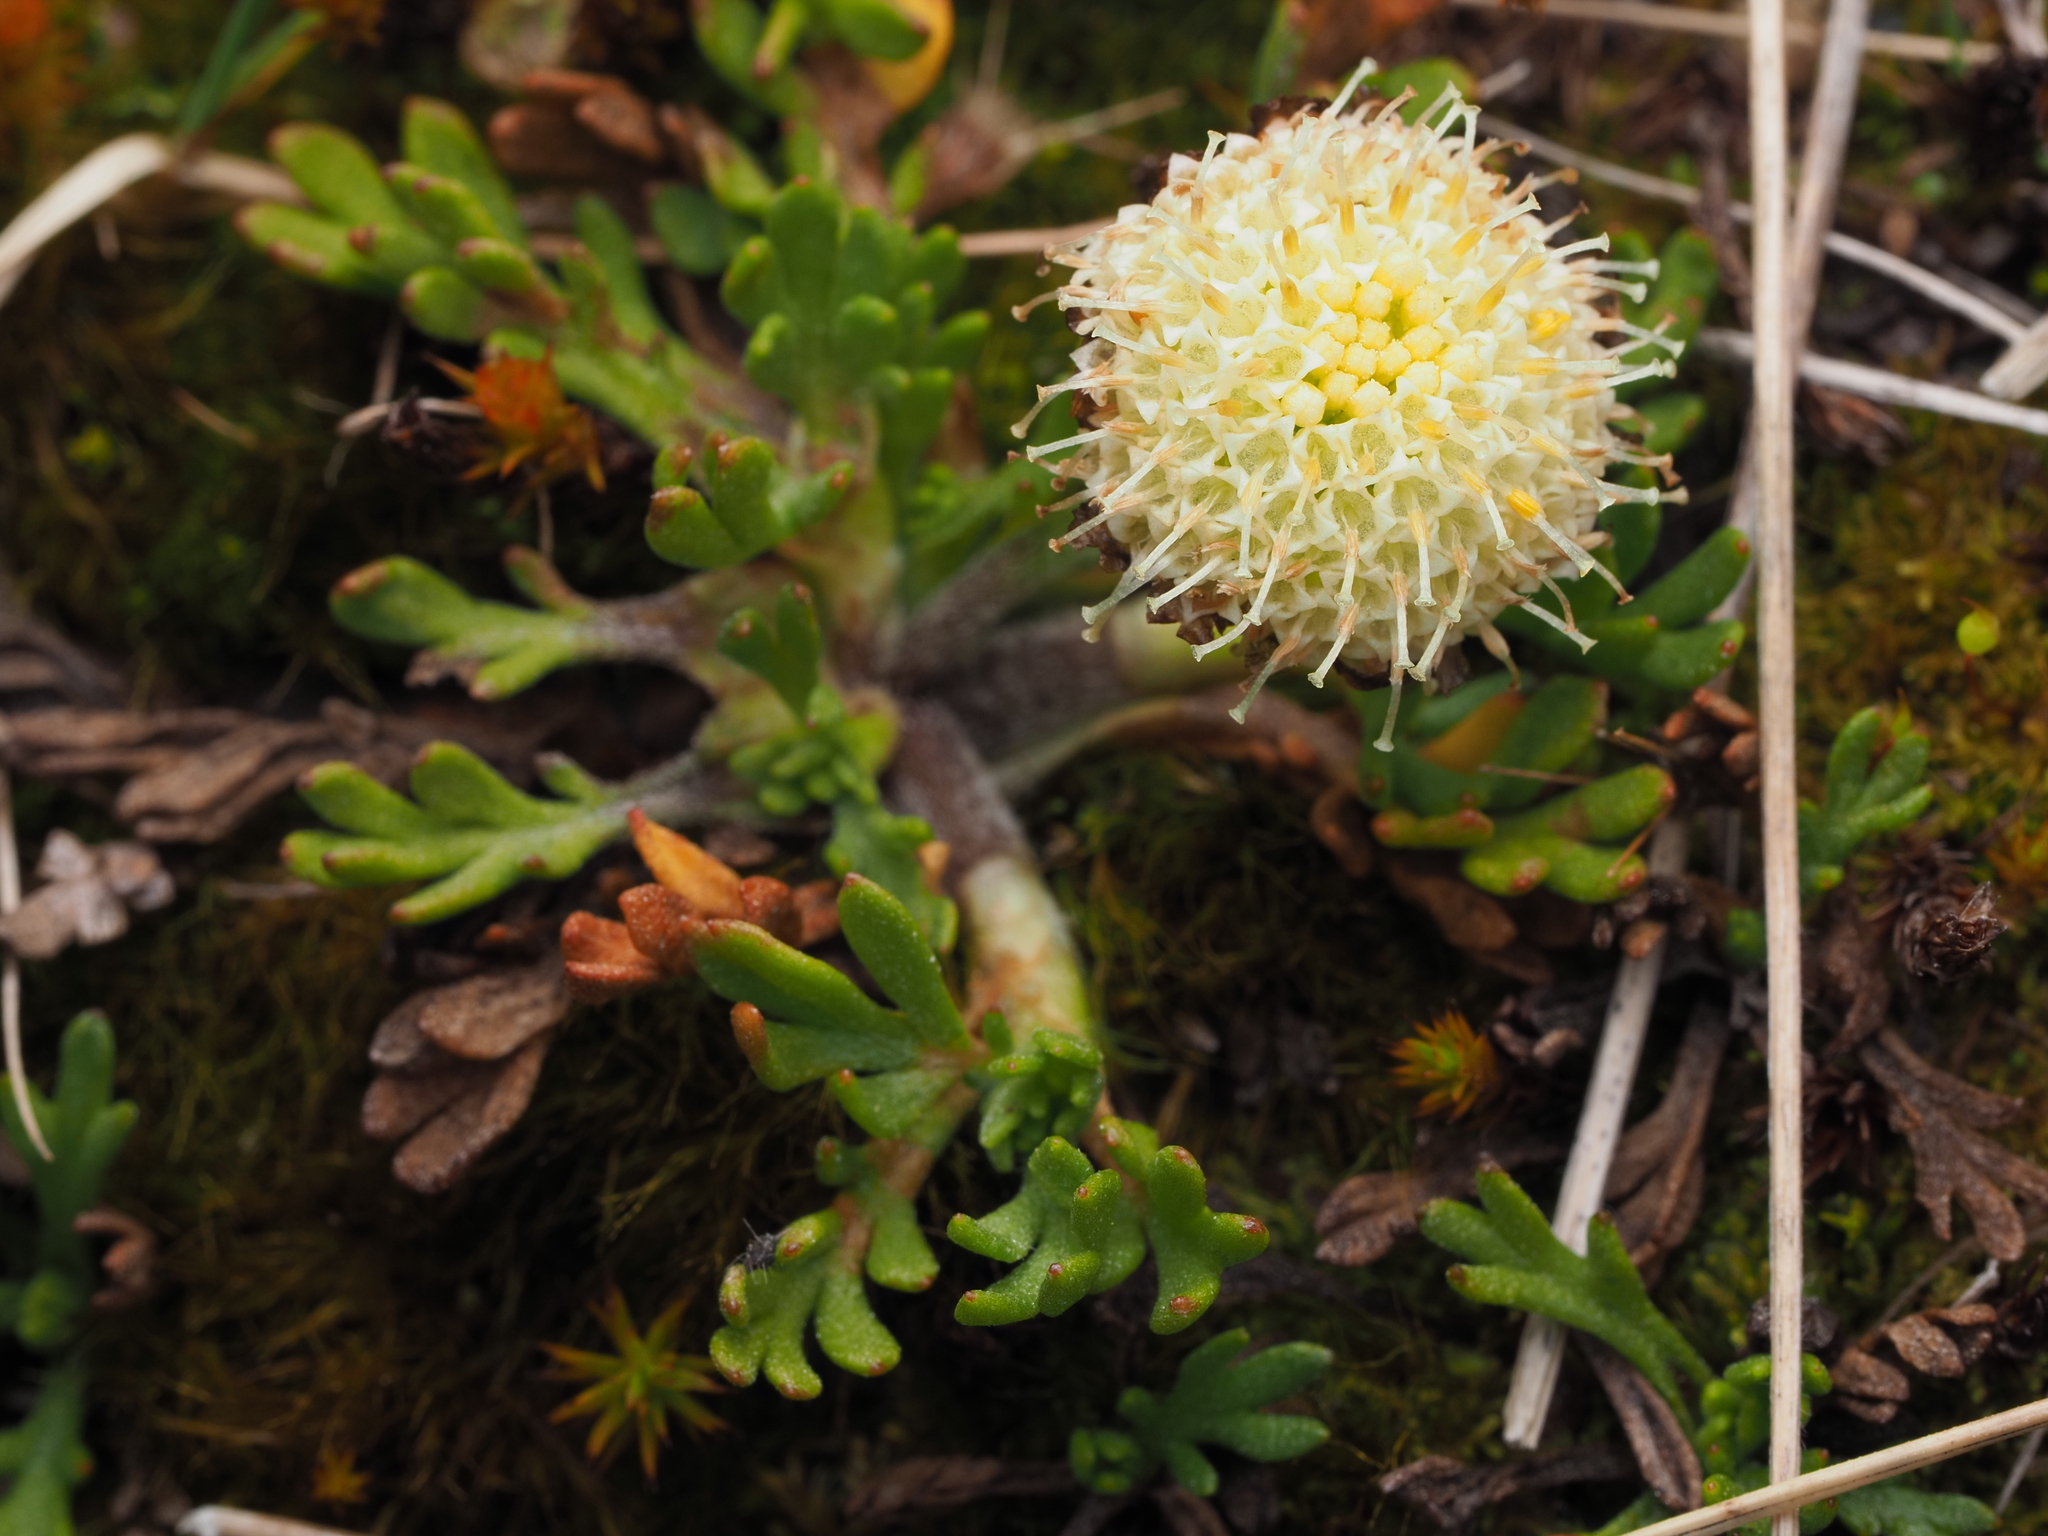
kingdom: Plantae
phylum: Tracheophyta
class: Magnoliopsida
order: Asterales
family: Asteraceae
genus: Leptinella
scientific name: Leptinella pyrethrifolia
